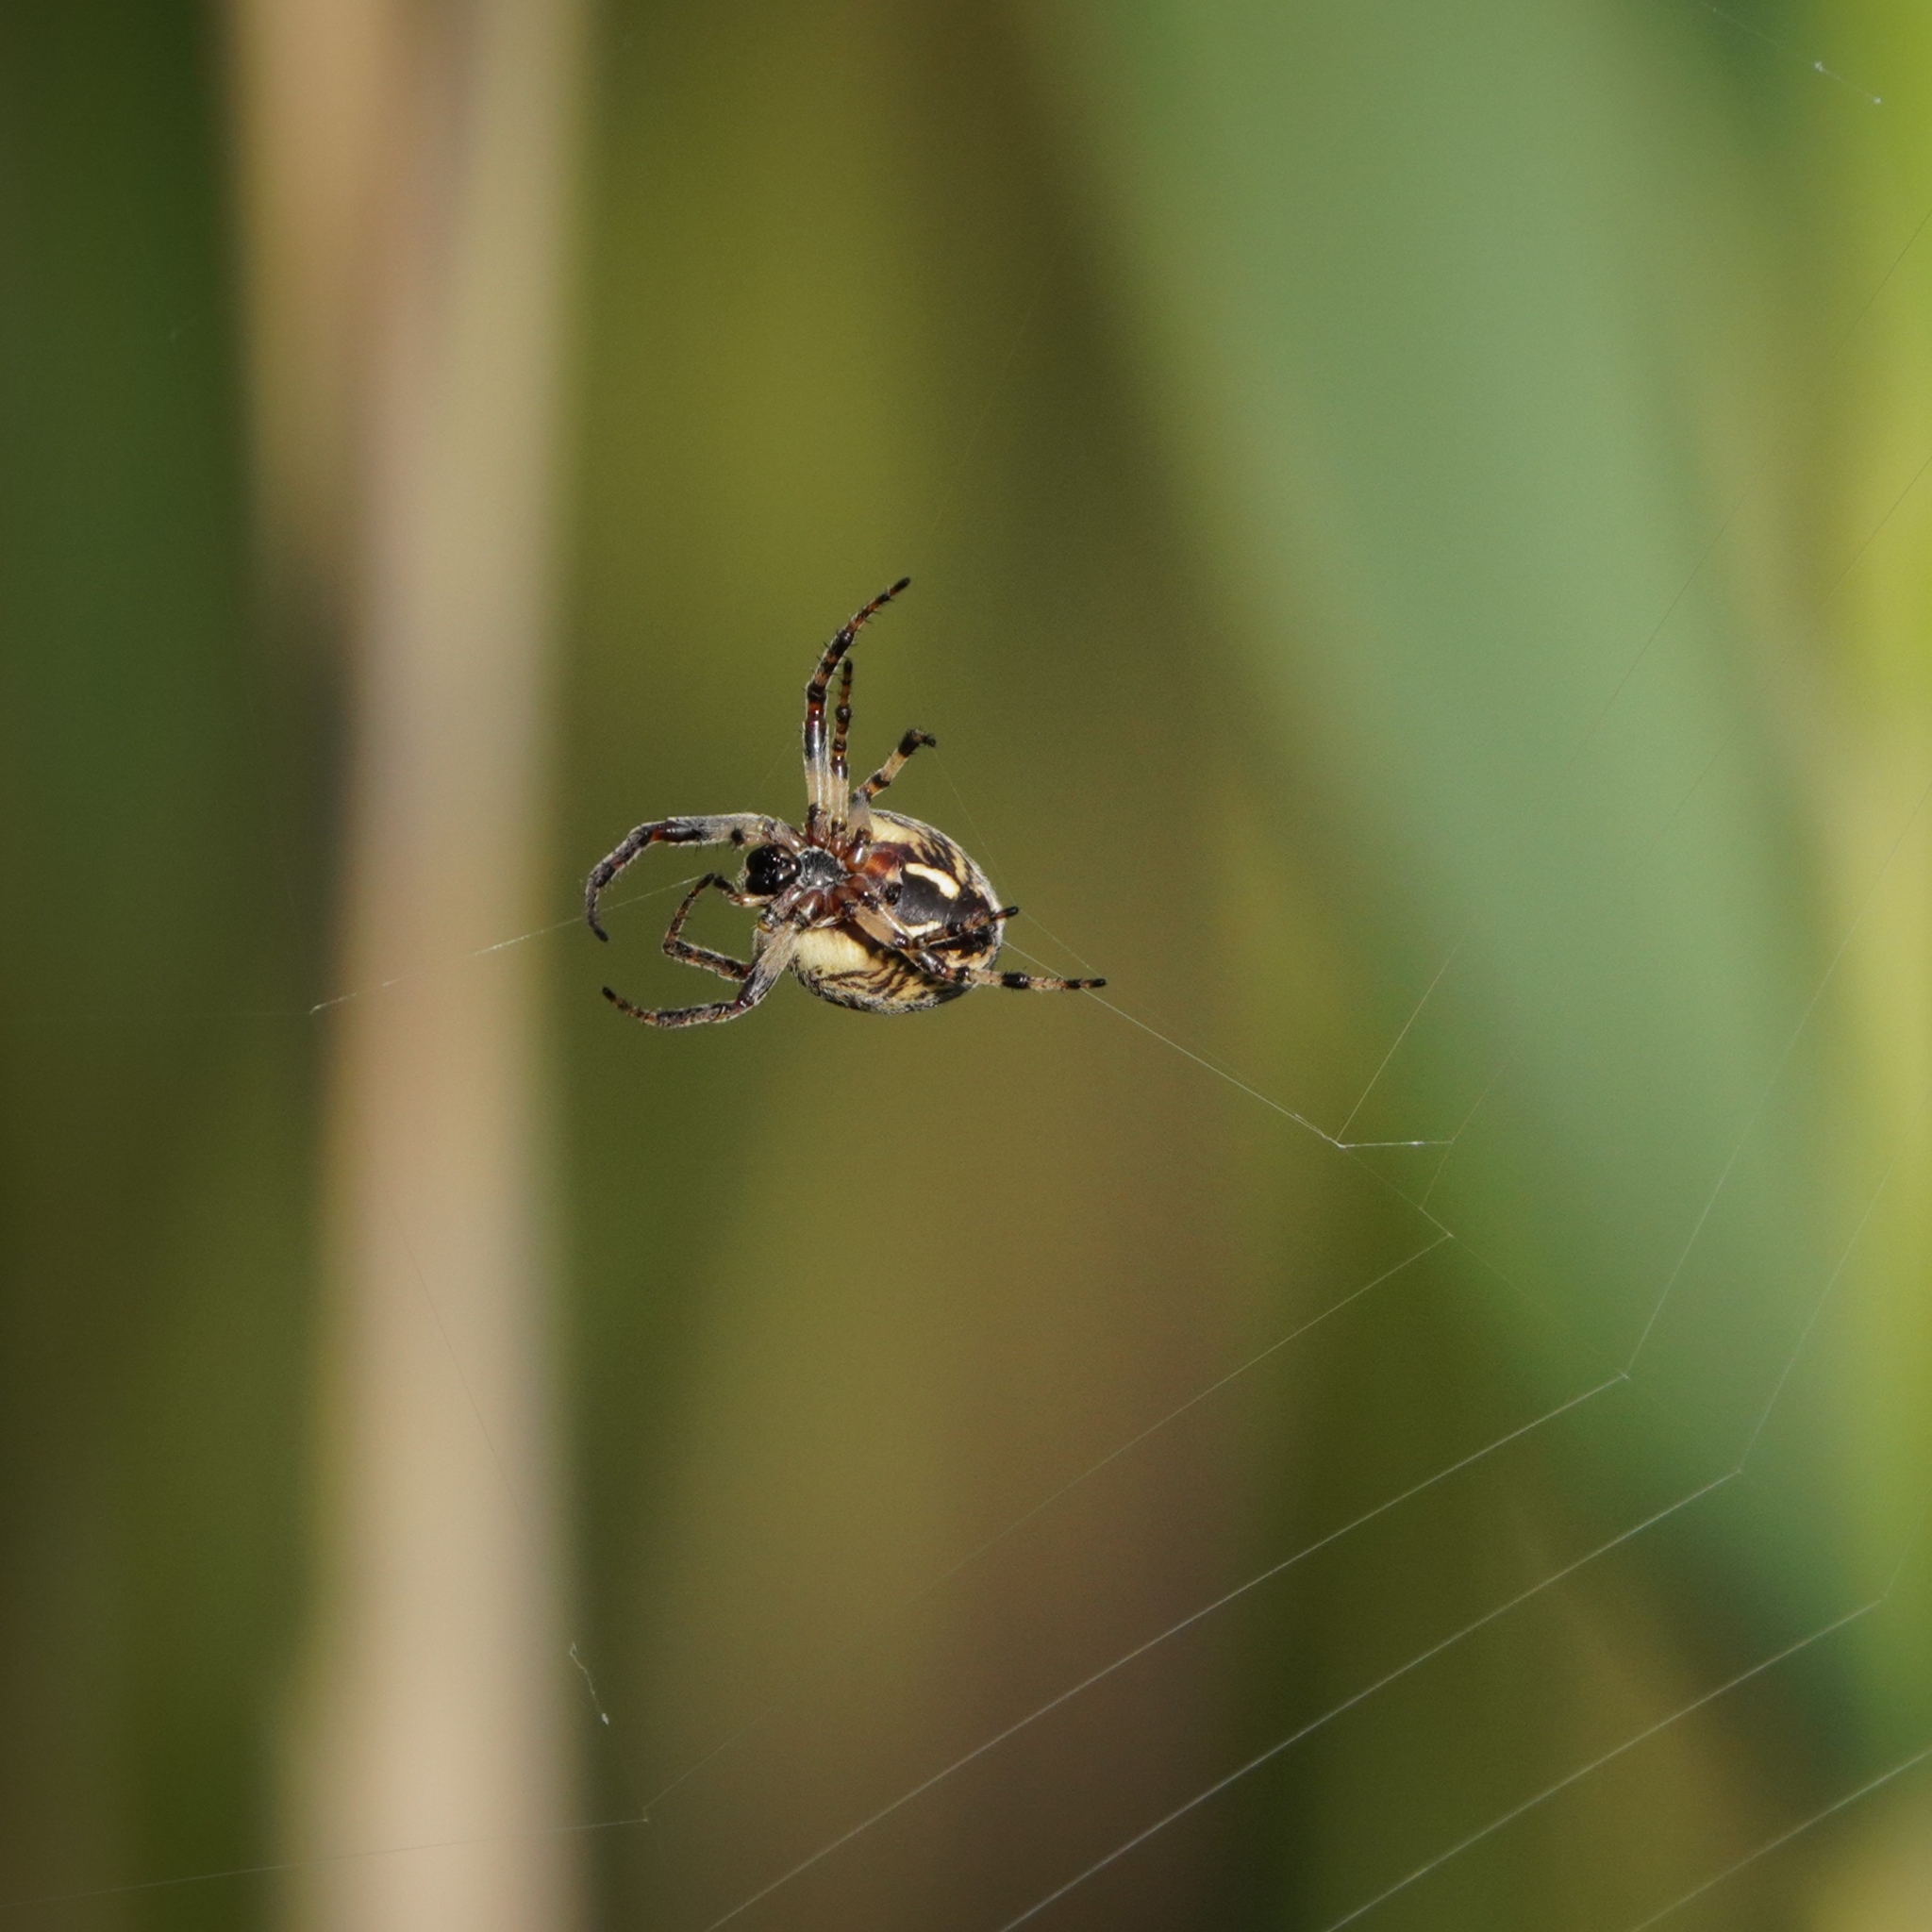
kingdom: Animalia
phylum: Arthropoda
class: Arachnida
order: Araneae
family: Araneidae
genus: Larinioides
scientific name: Larinioides cornutus
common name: Furrow orbweaver
